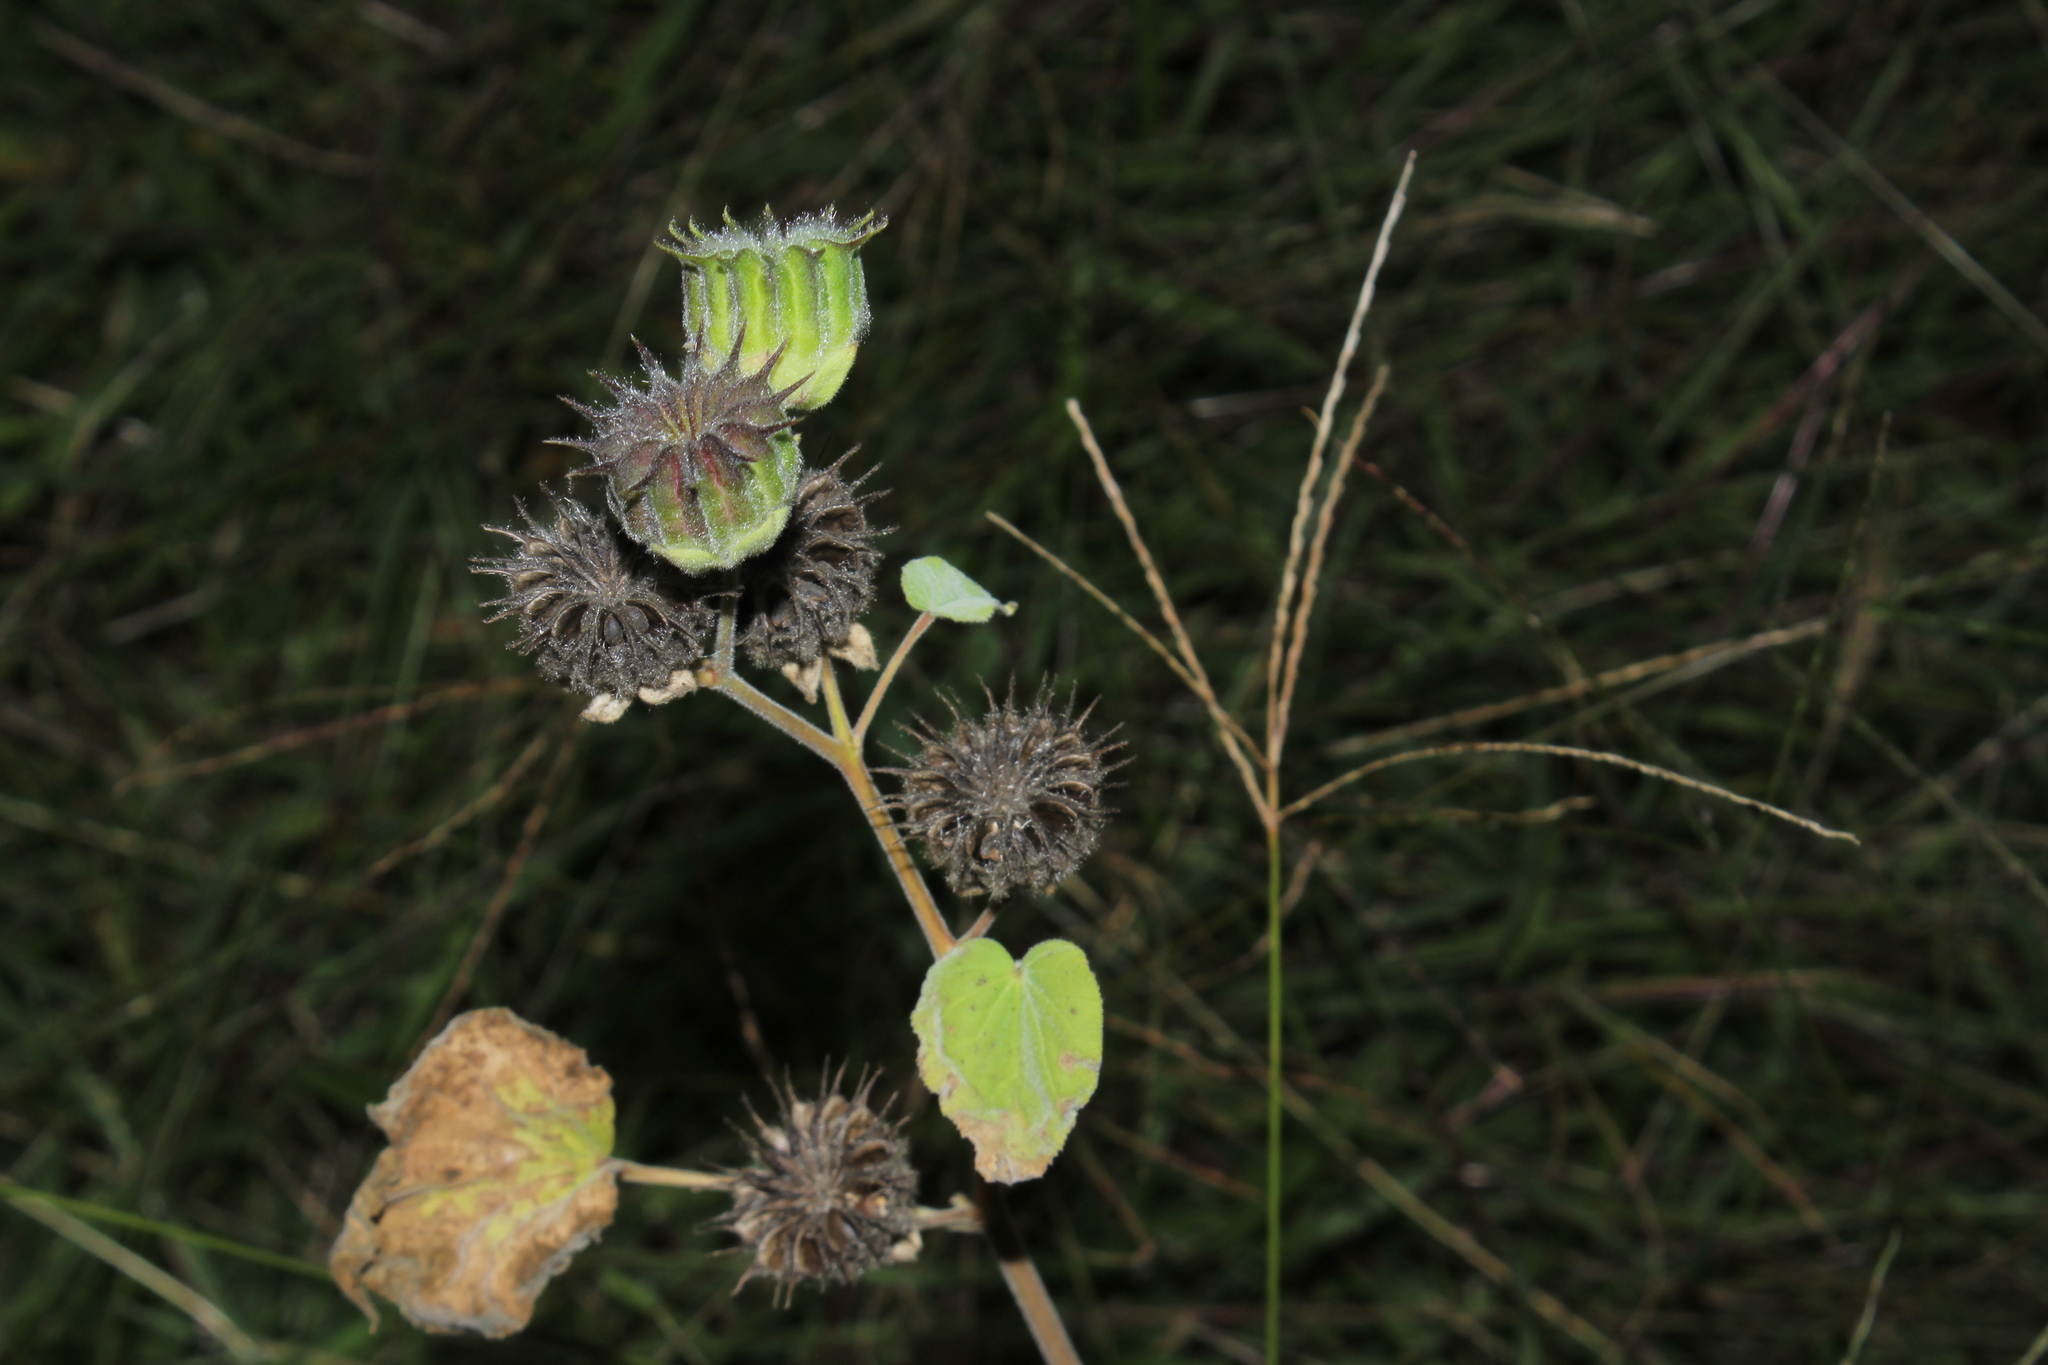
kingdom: Plantae
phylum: Tracheophyta
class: Magnoliopsida
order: Malvales
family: Malvaceae
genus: Abutilon
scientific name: Abutilon theophrasti
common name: Velvetleaf
